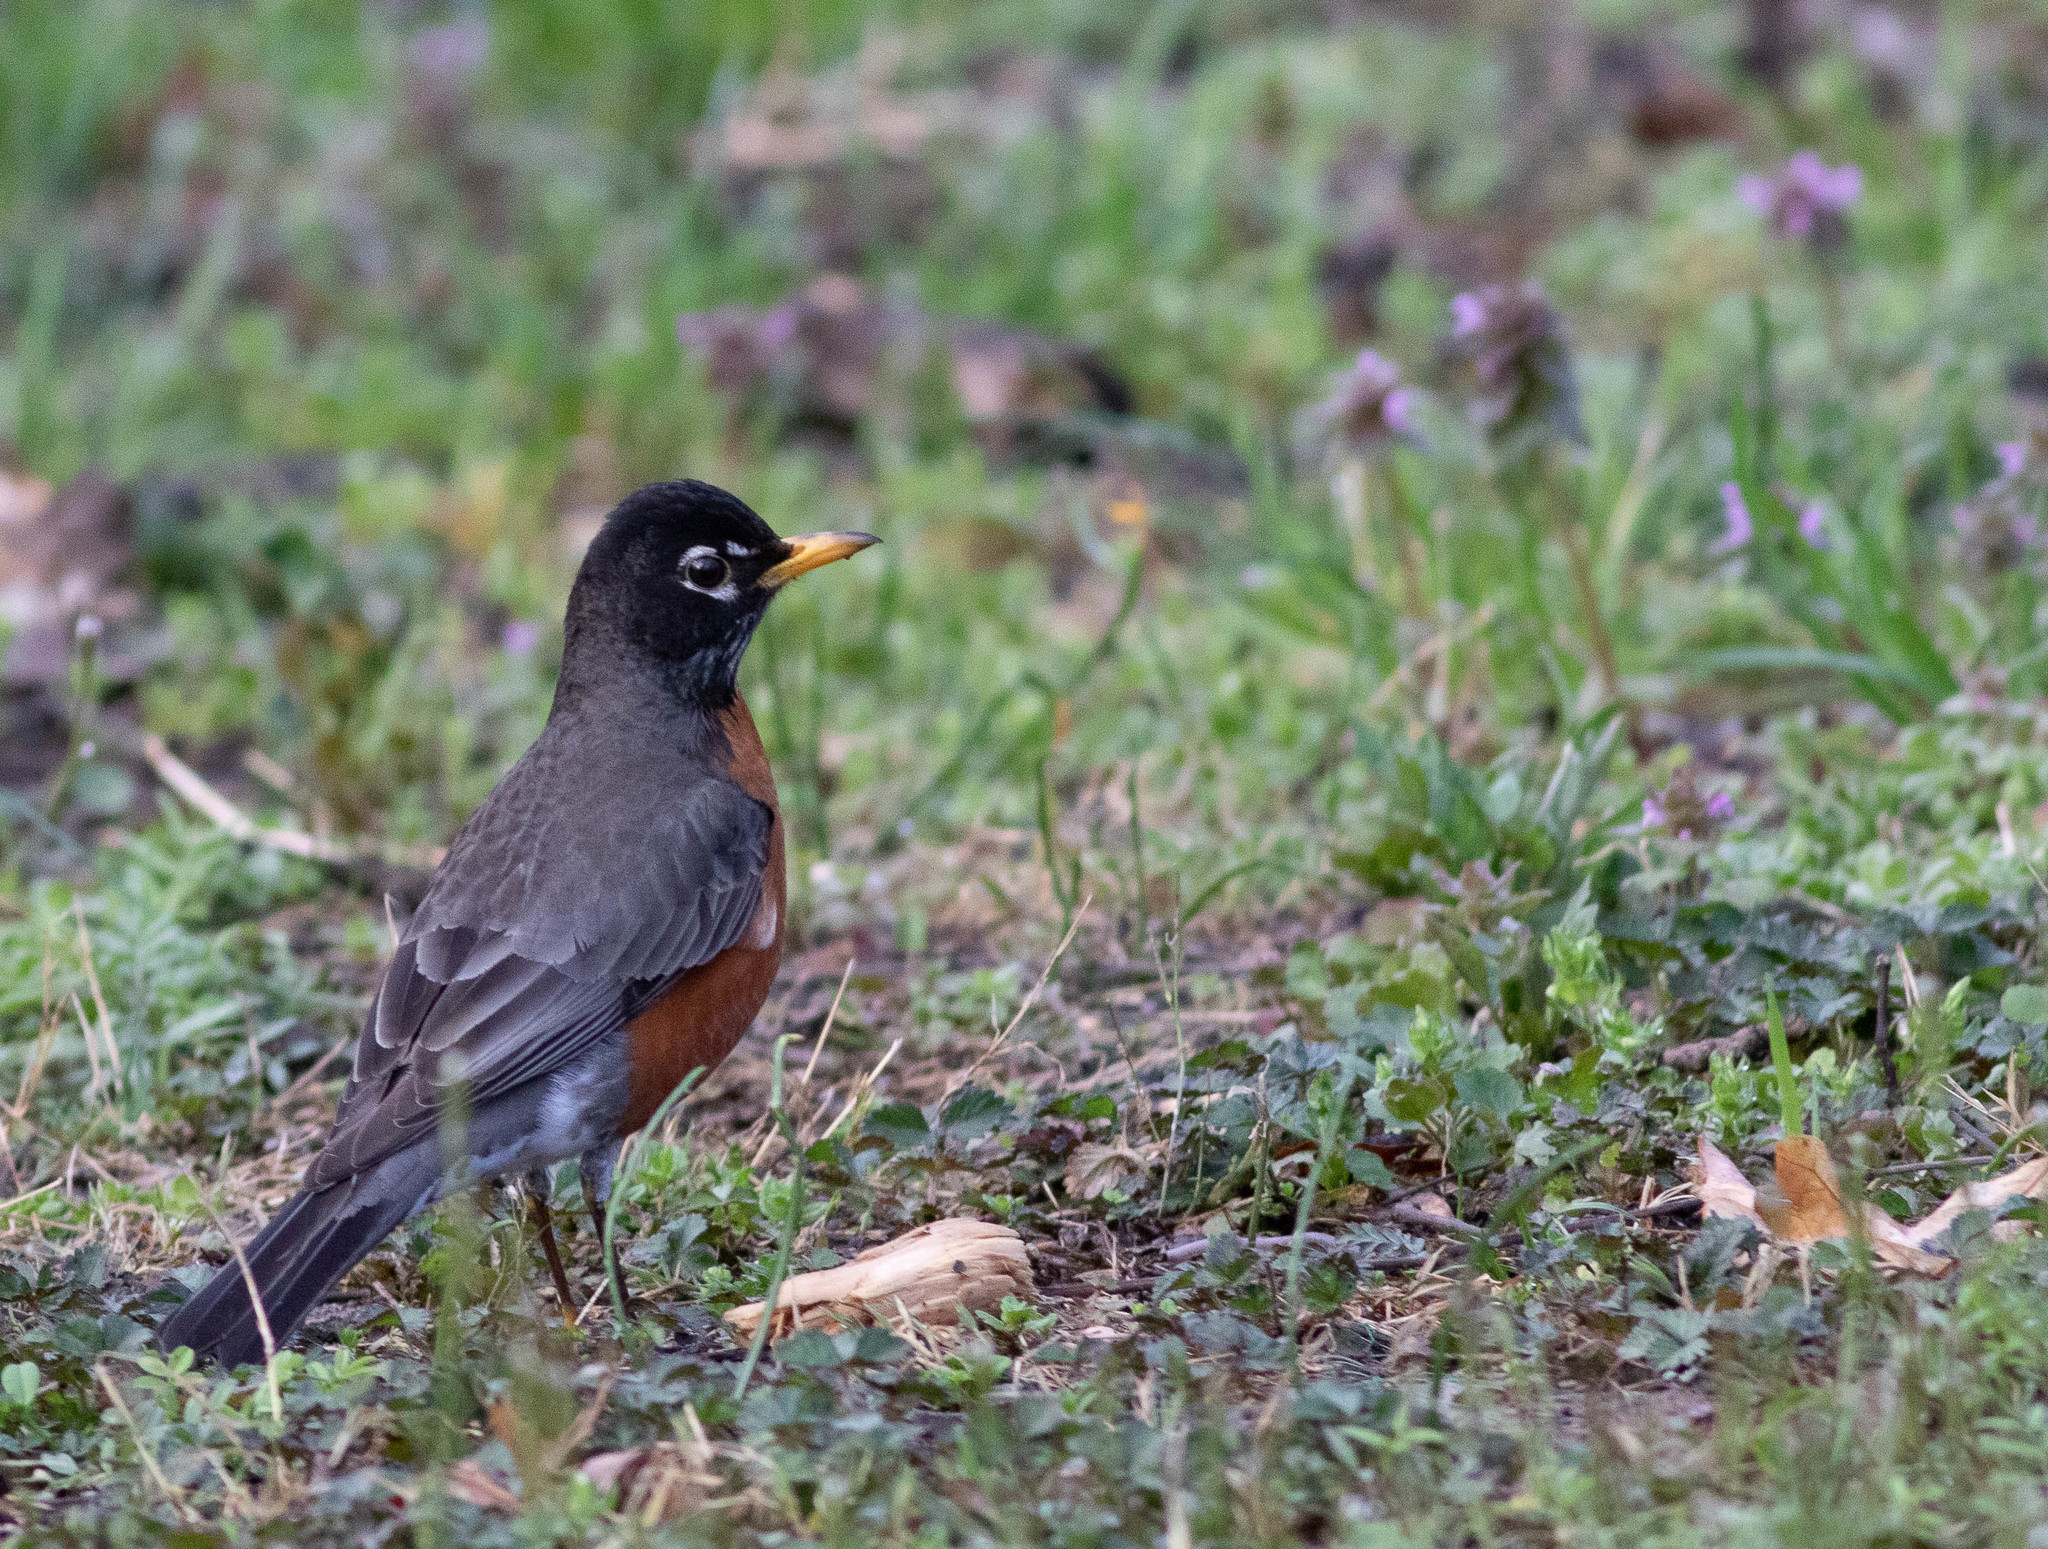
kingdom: Animalia
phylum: Chordata
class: Aves
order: Passeriformes
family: Turdidae
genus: Turdus
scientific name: Turdus migratorius
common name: American robin
